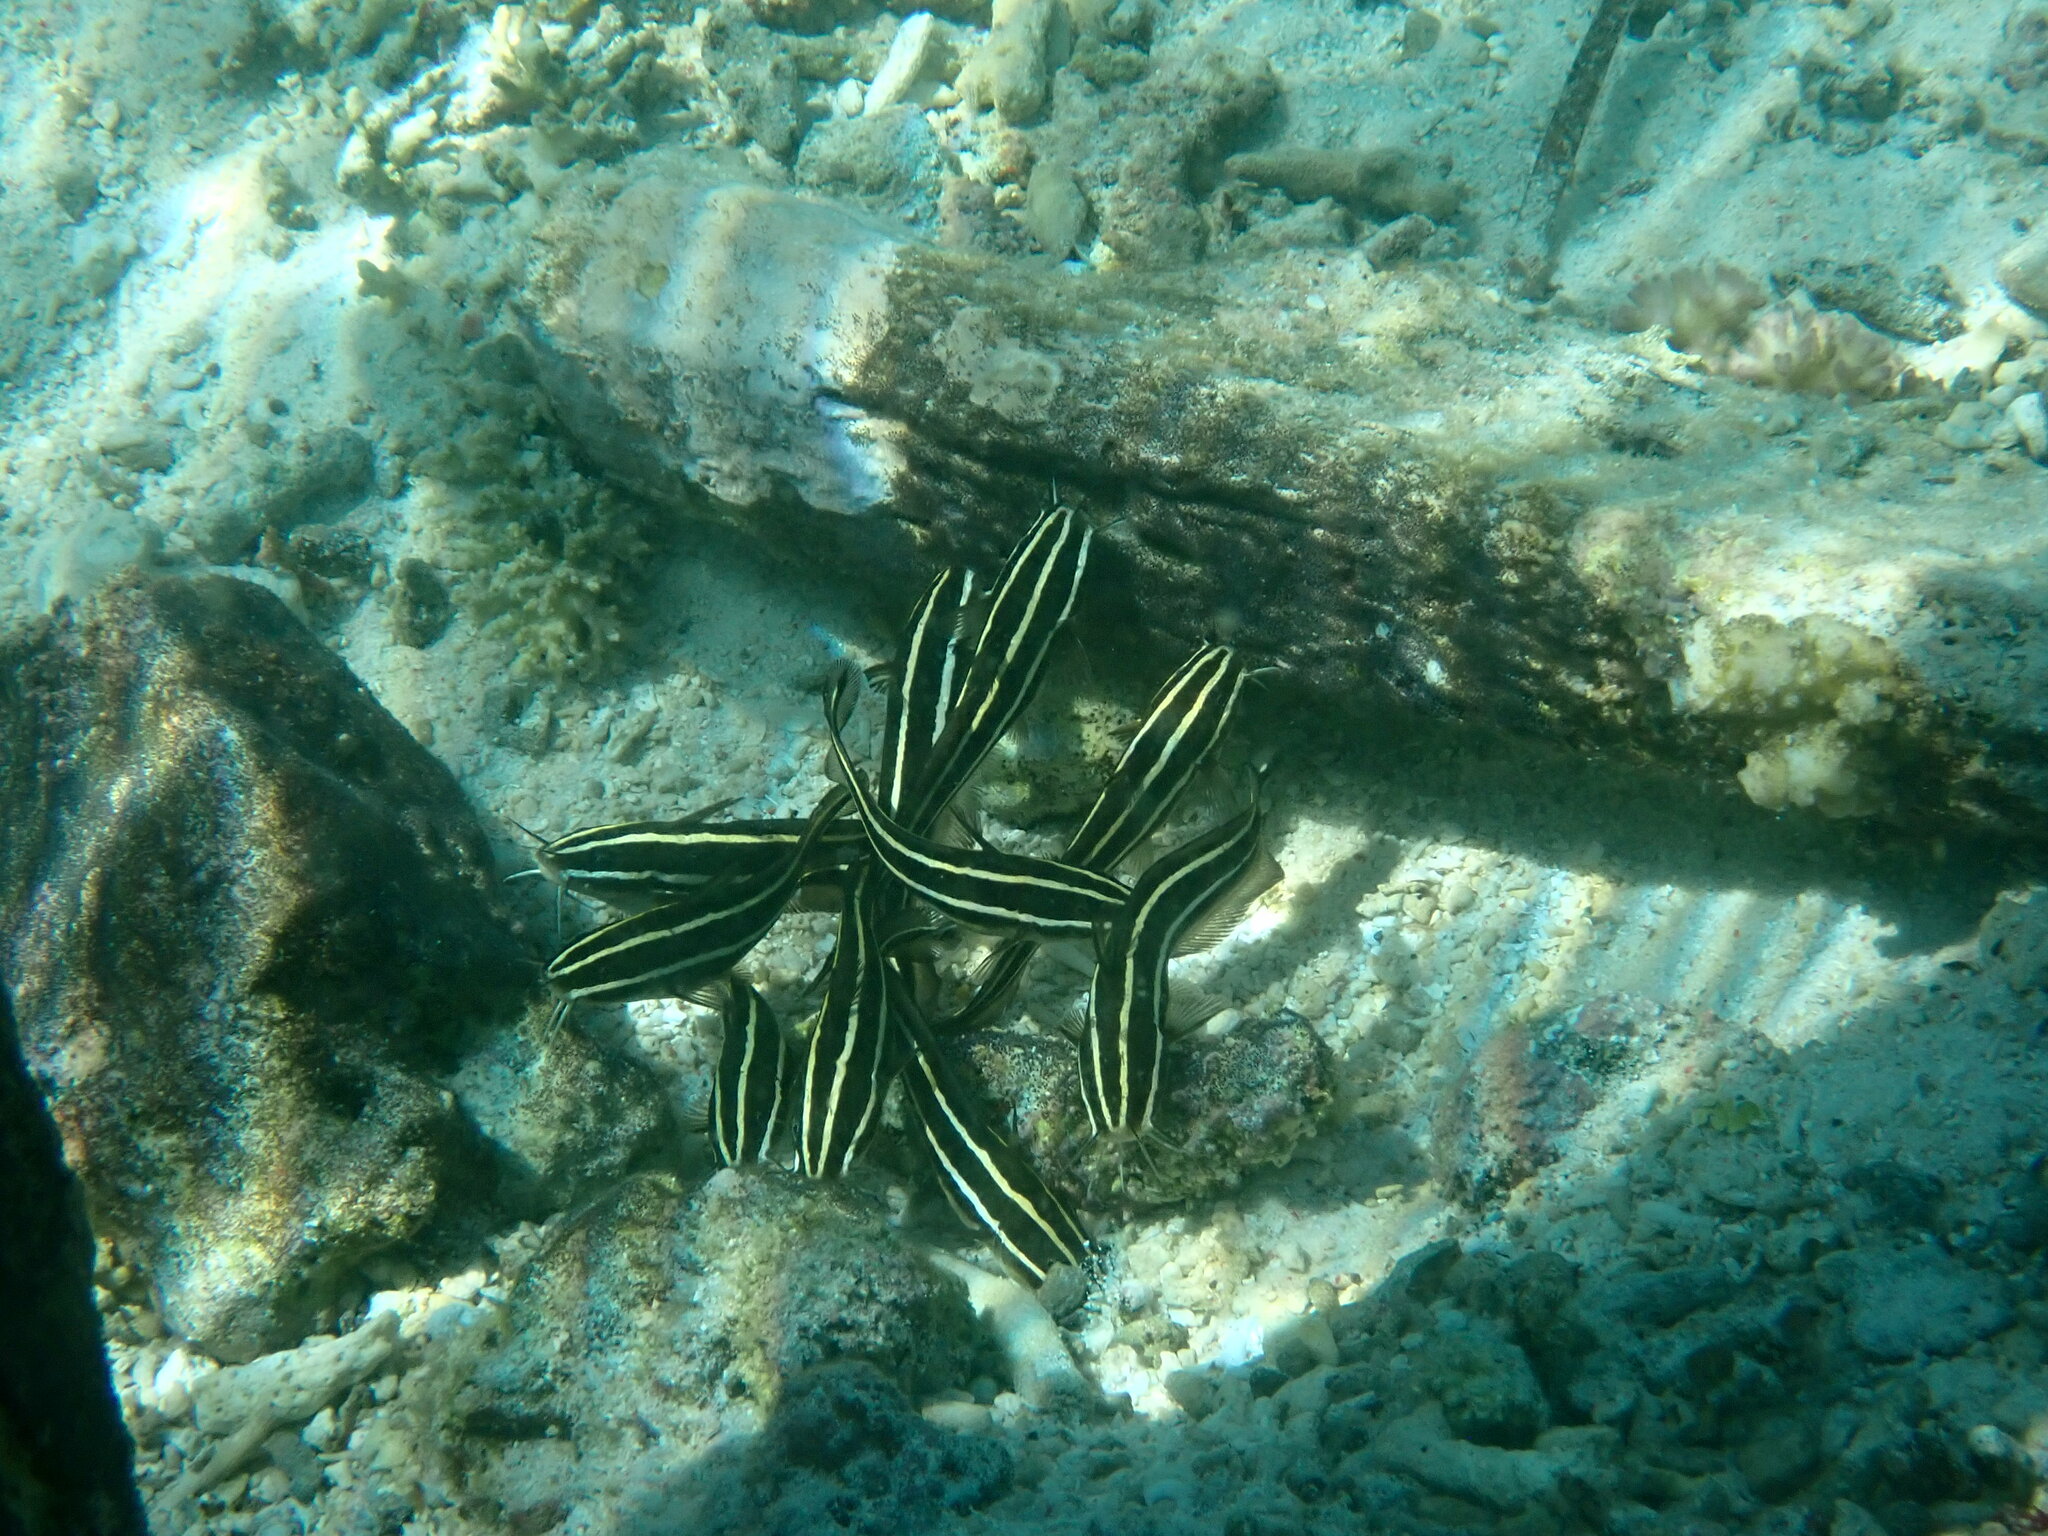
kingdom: Animalia
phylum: Chordata
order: Siluriformes
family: Plotosidae
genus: Plotosus
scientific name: Plotosus lineatus
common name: Striped eel catfish
